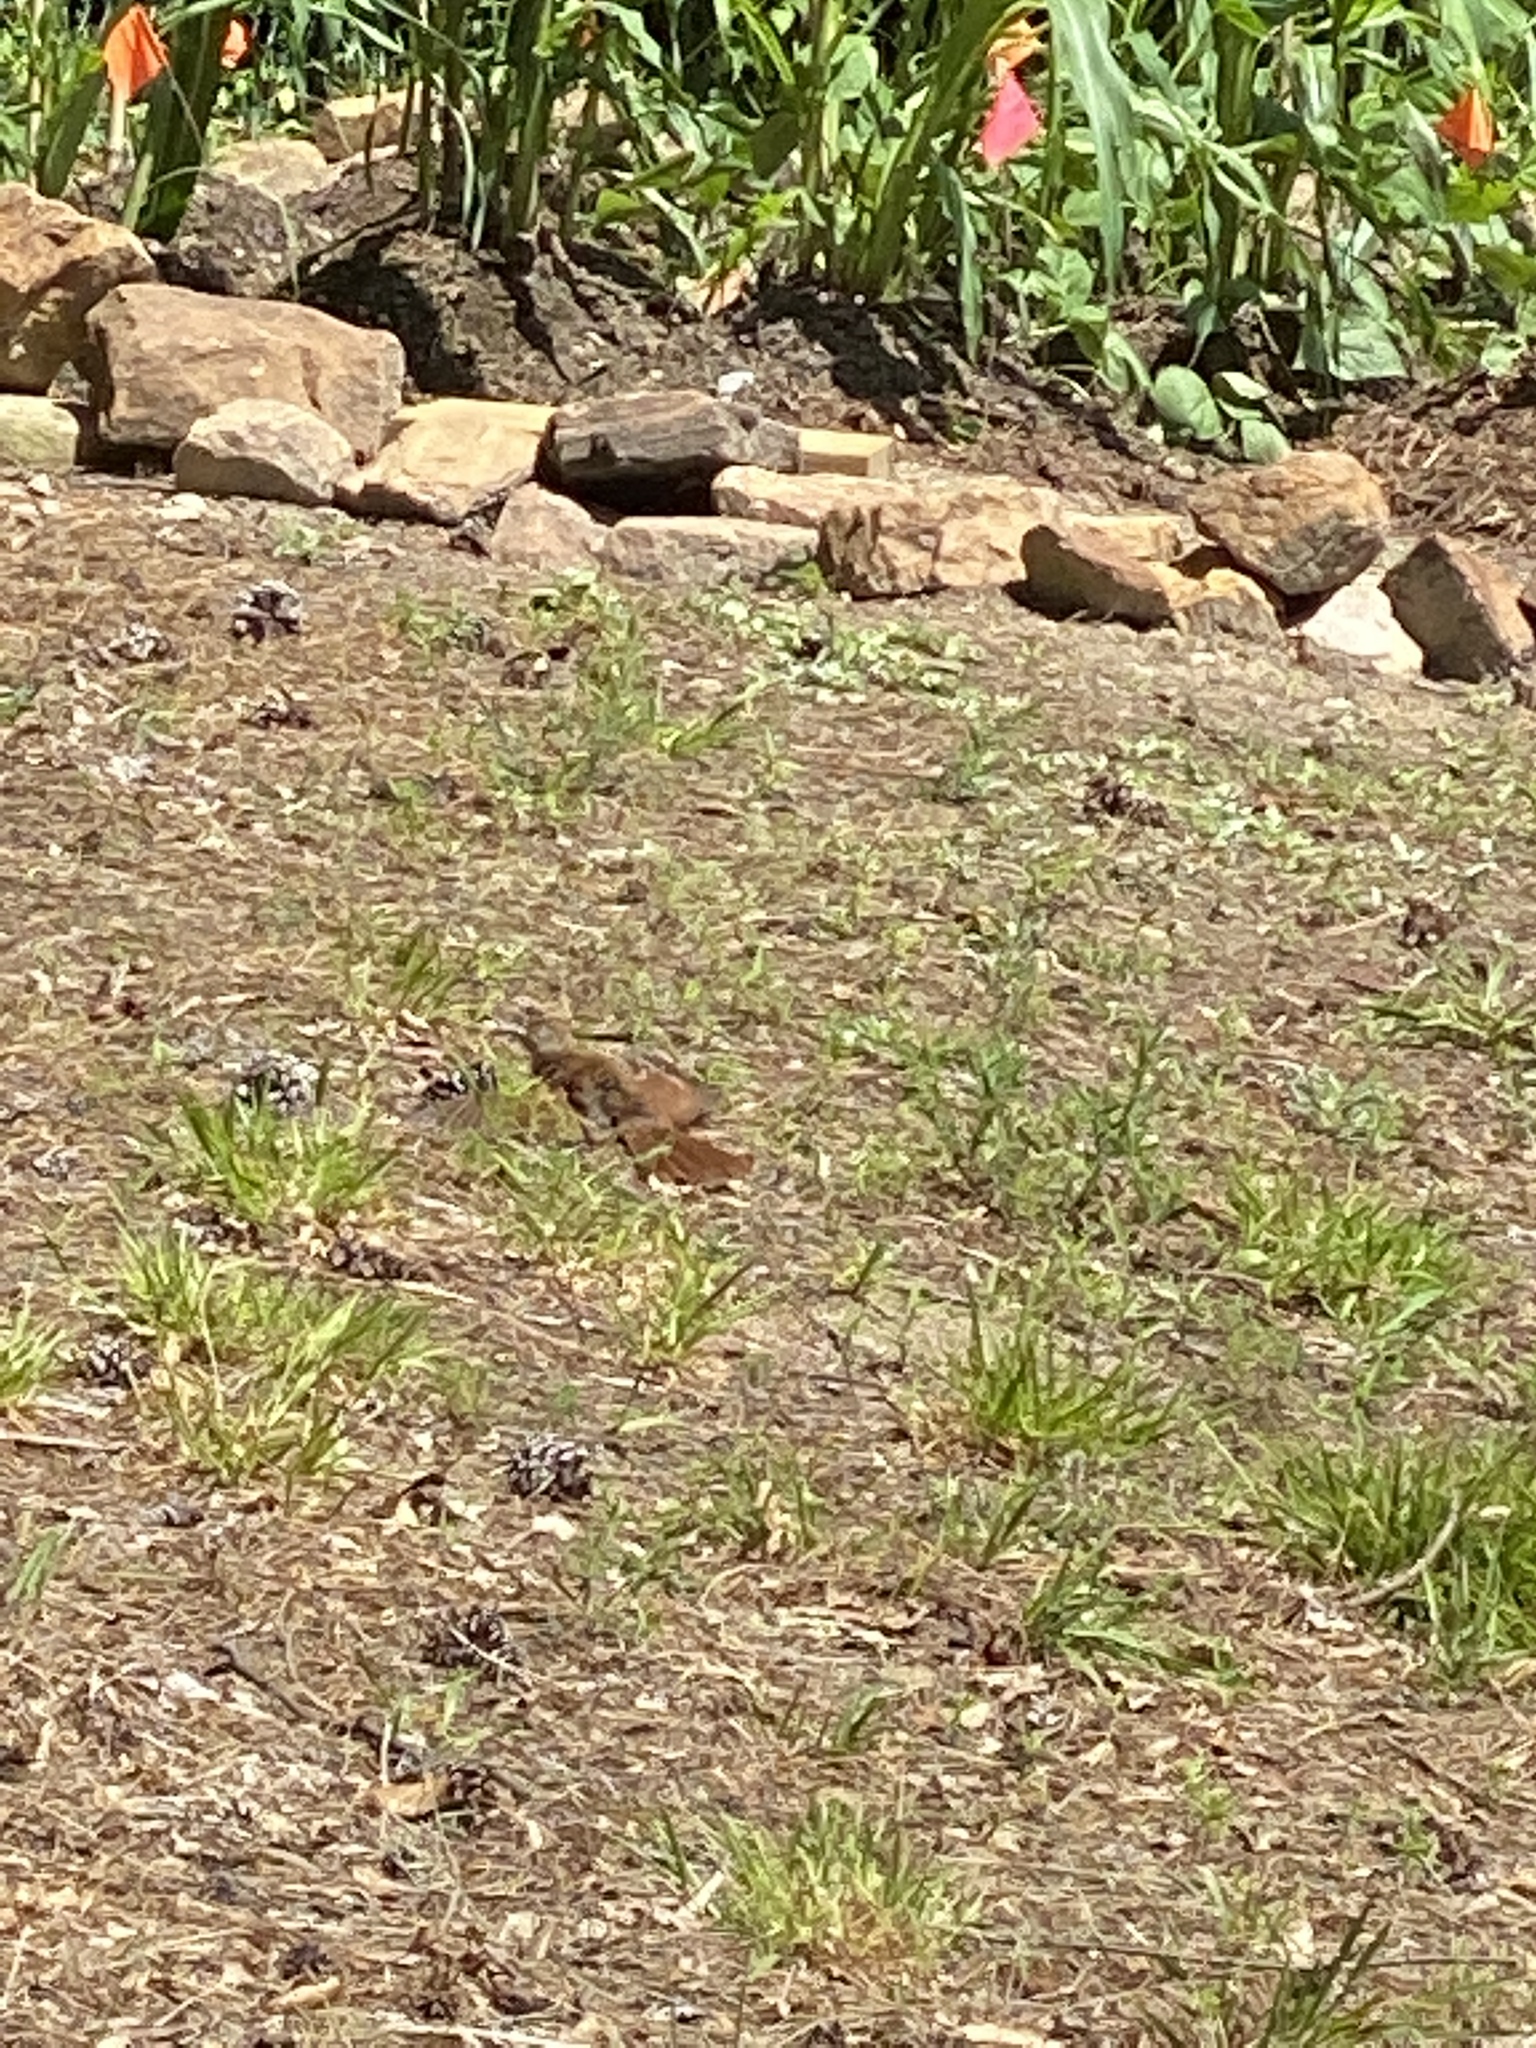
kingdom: Animalia
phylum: Chordata
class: Aves
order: Passeriformes
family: Mimidae
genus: Toxostoma
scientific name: Toxostoma rufum
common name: Brown thrasher
